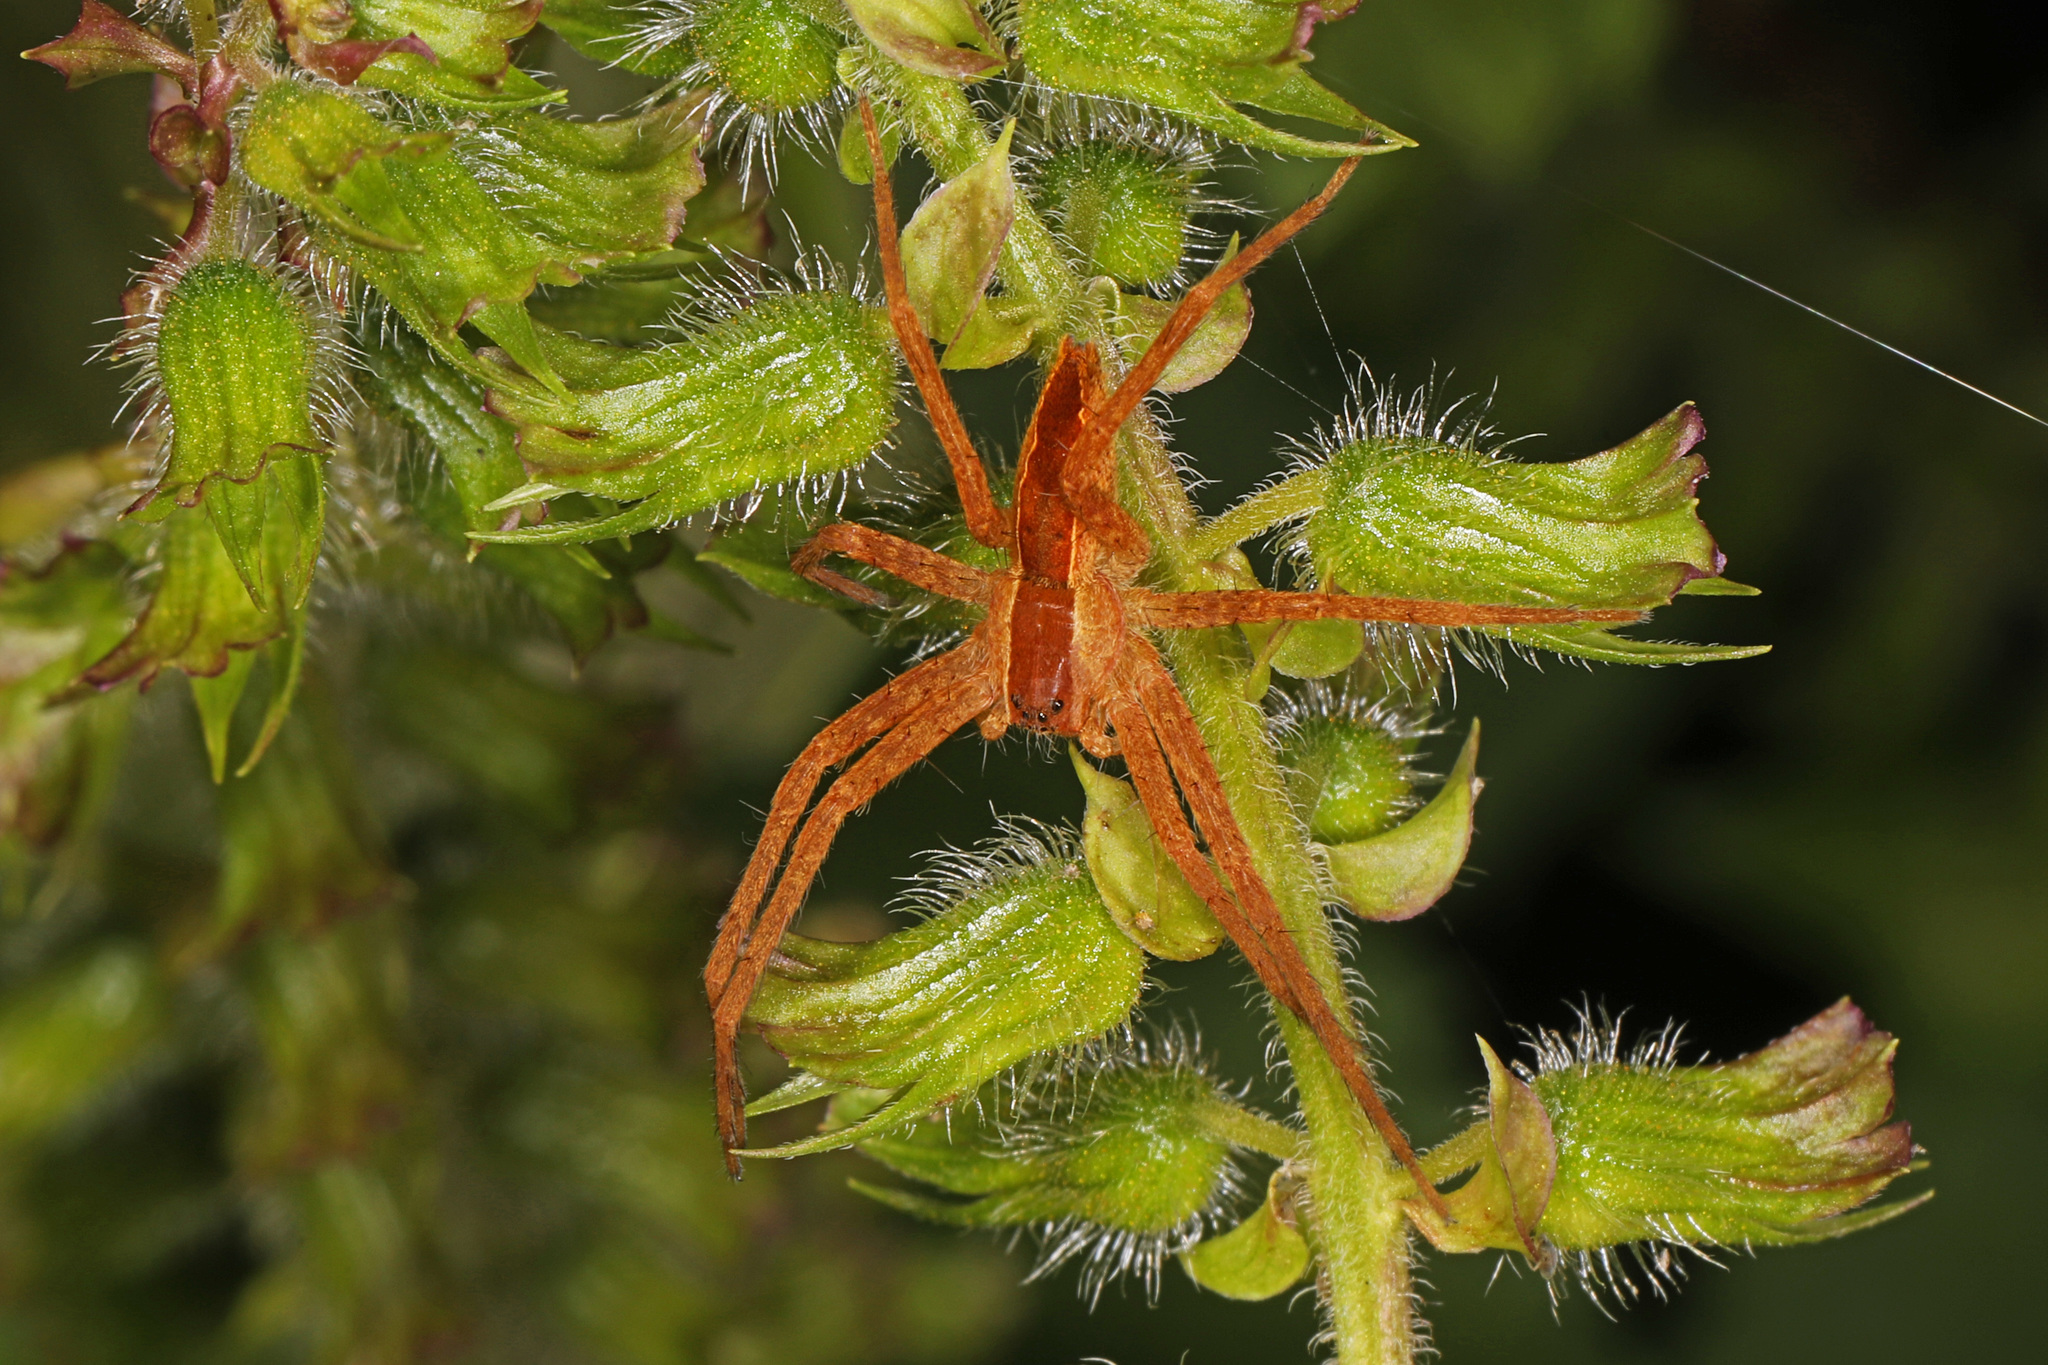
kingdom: Animalia
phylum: Arthropoda
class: Arachnida
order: Araneae
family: Pisauridae
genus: Pisaurina
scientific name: Pisaurina mira
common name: American nursery web spider
